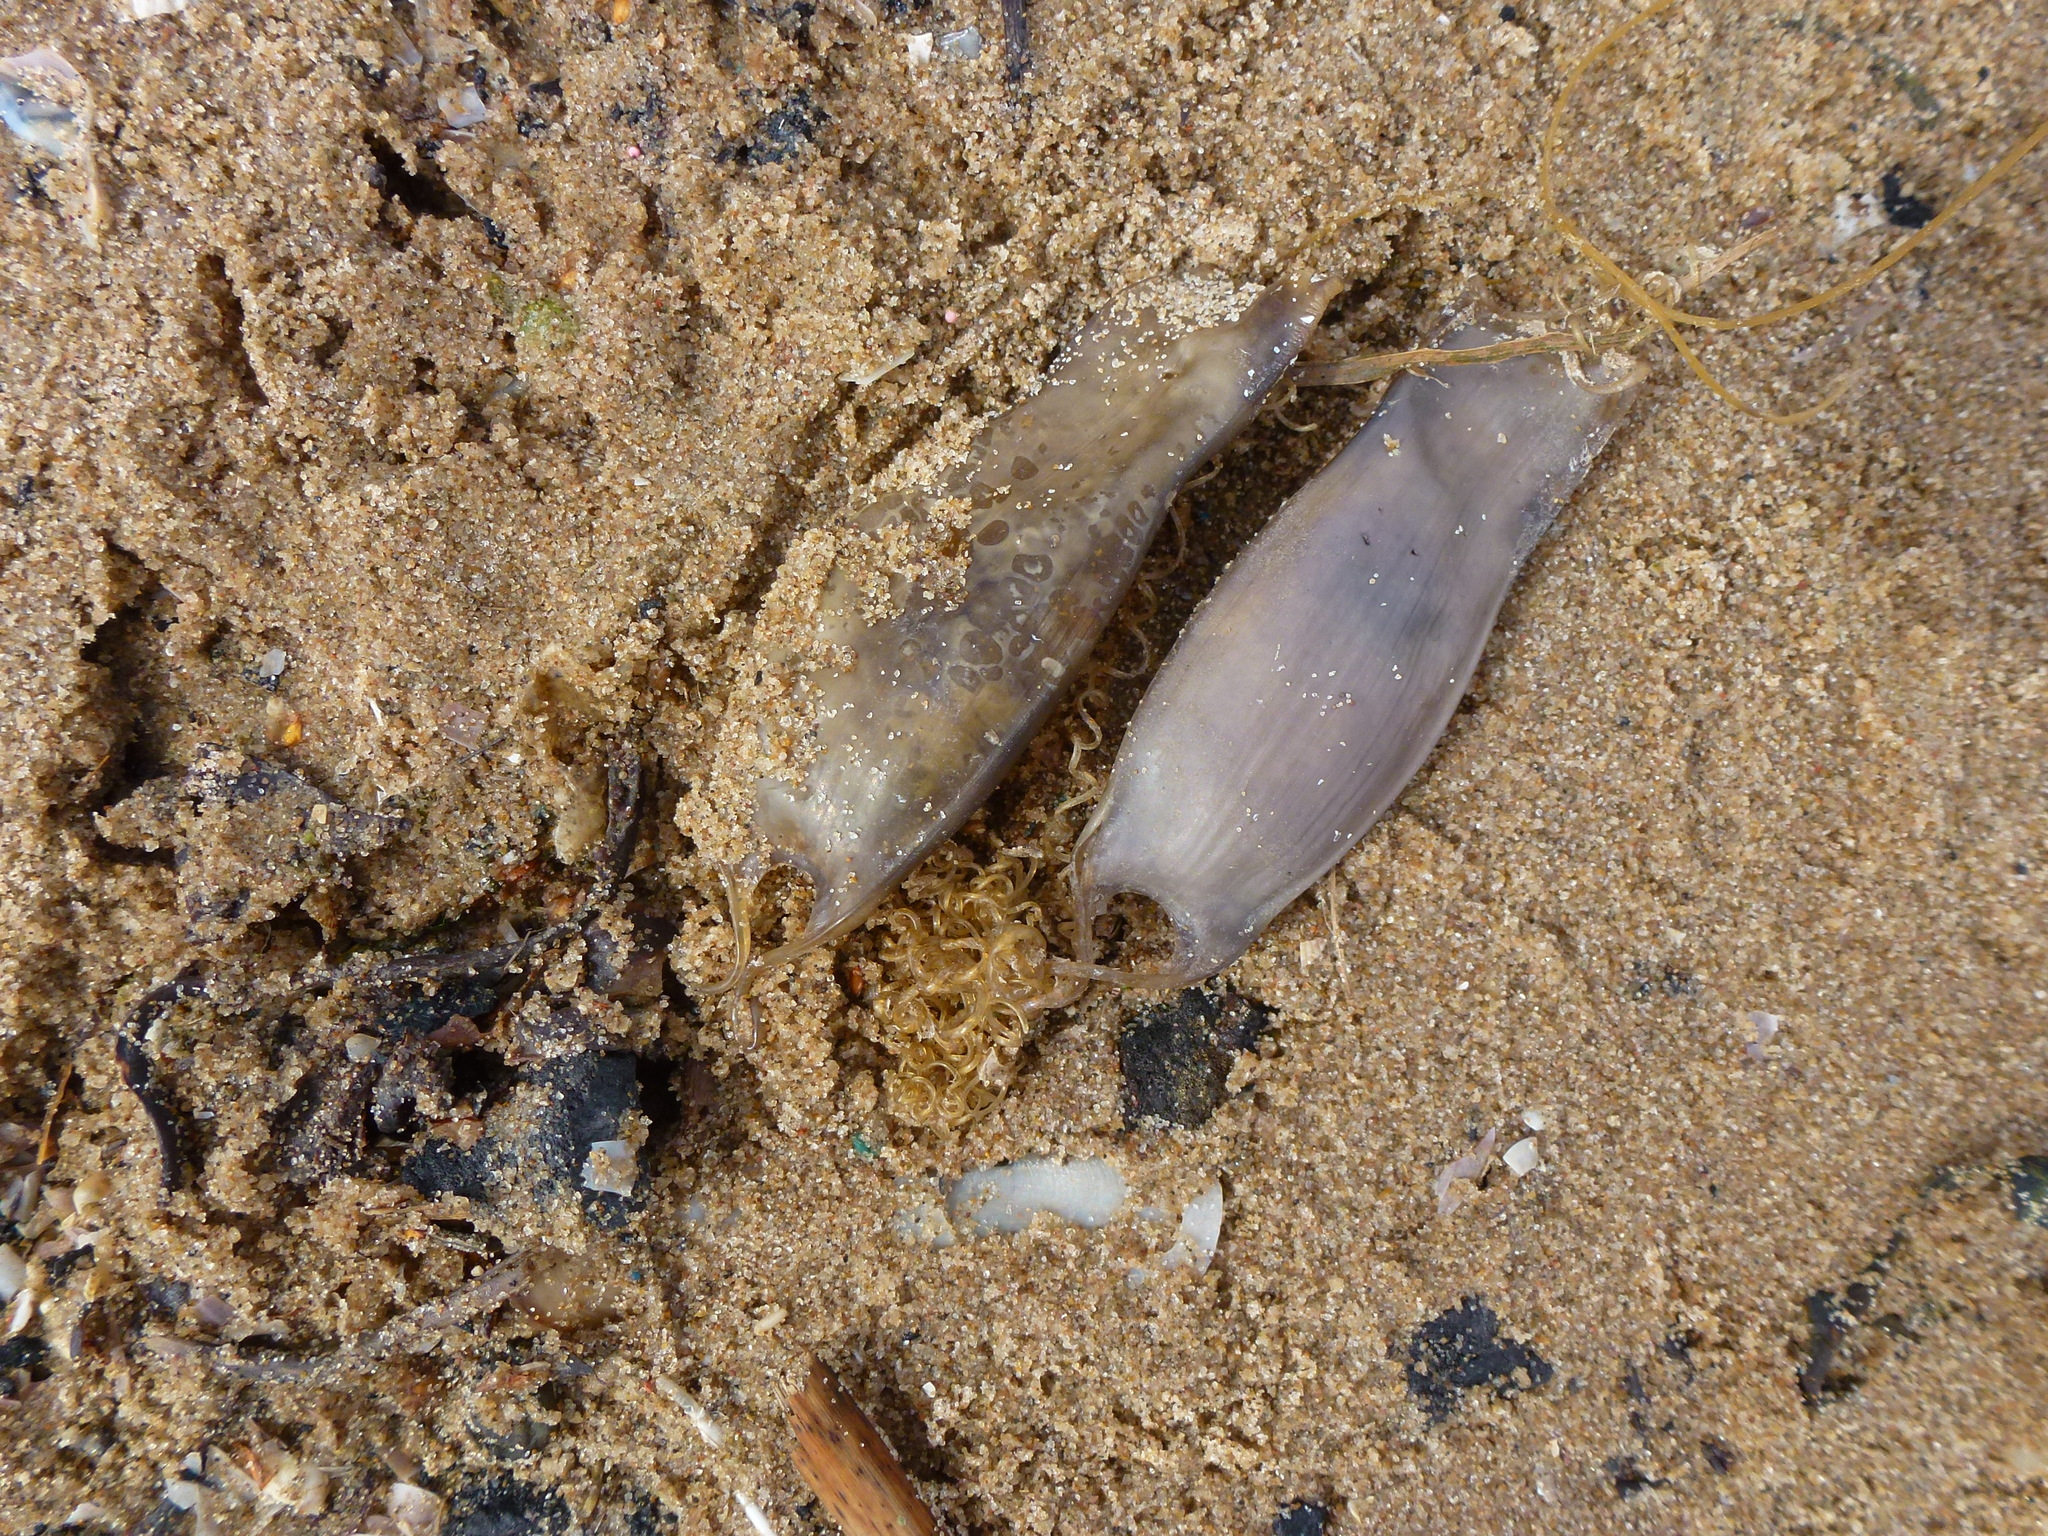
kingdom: Animalia
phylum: Chordata
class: Elasmobranchii
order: Carcharhiniformes
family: Scyliorhinidae
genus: Scyliorhinus
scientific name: Scyliorhinus canicula
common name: Lesser spotted dogfish
